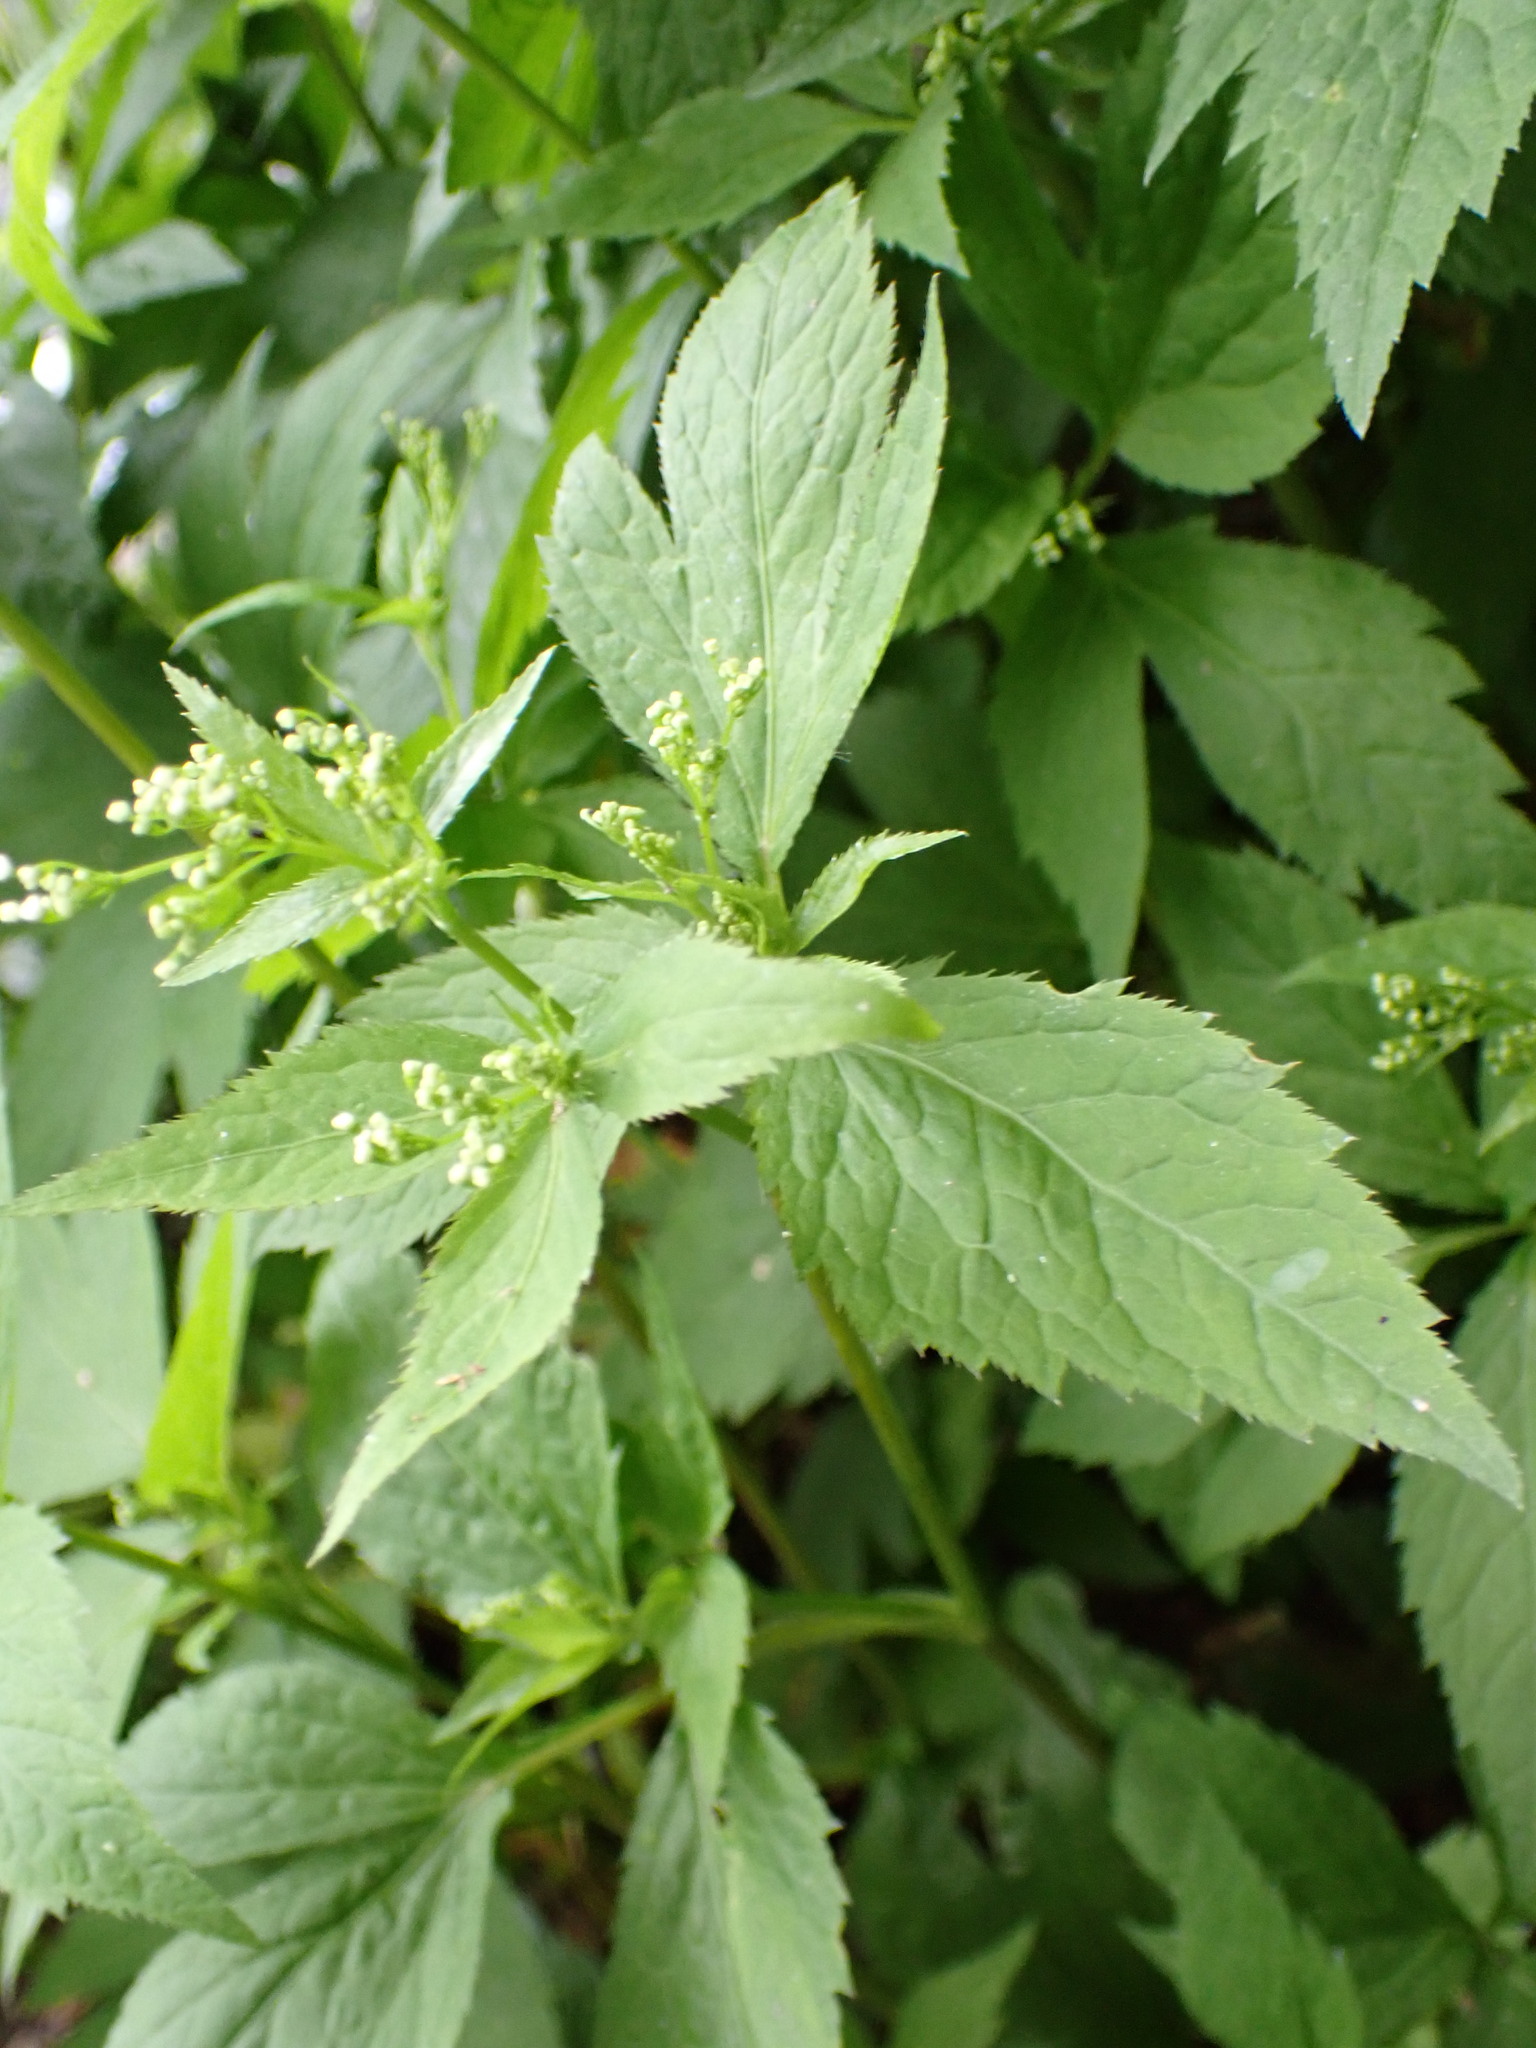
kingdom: Plantae
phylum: Tracheophyta
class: Magnoliopsida
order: Apiales
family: Apiaceae
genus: Cryptotaenia
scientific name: Cryptotaenia canadensis
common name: Honewort
